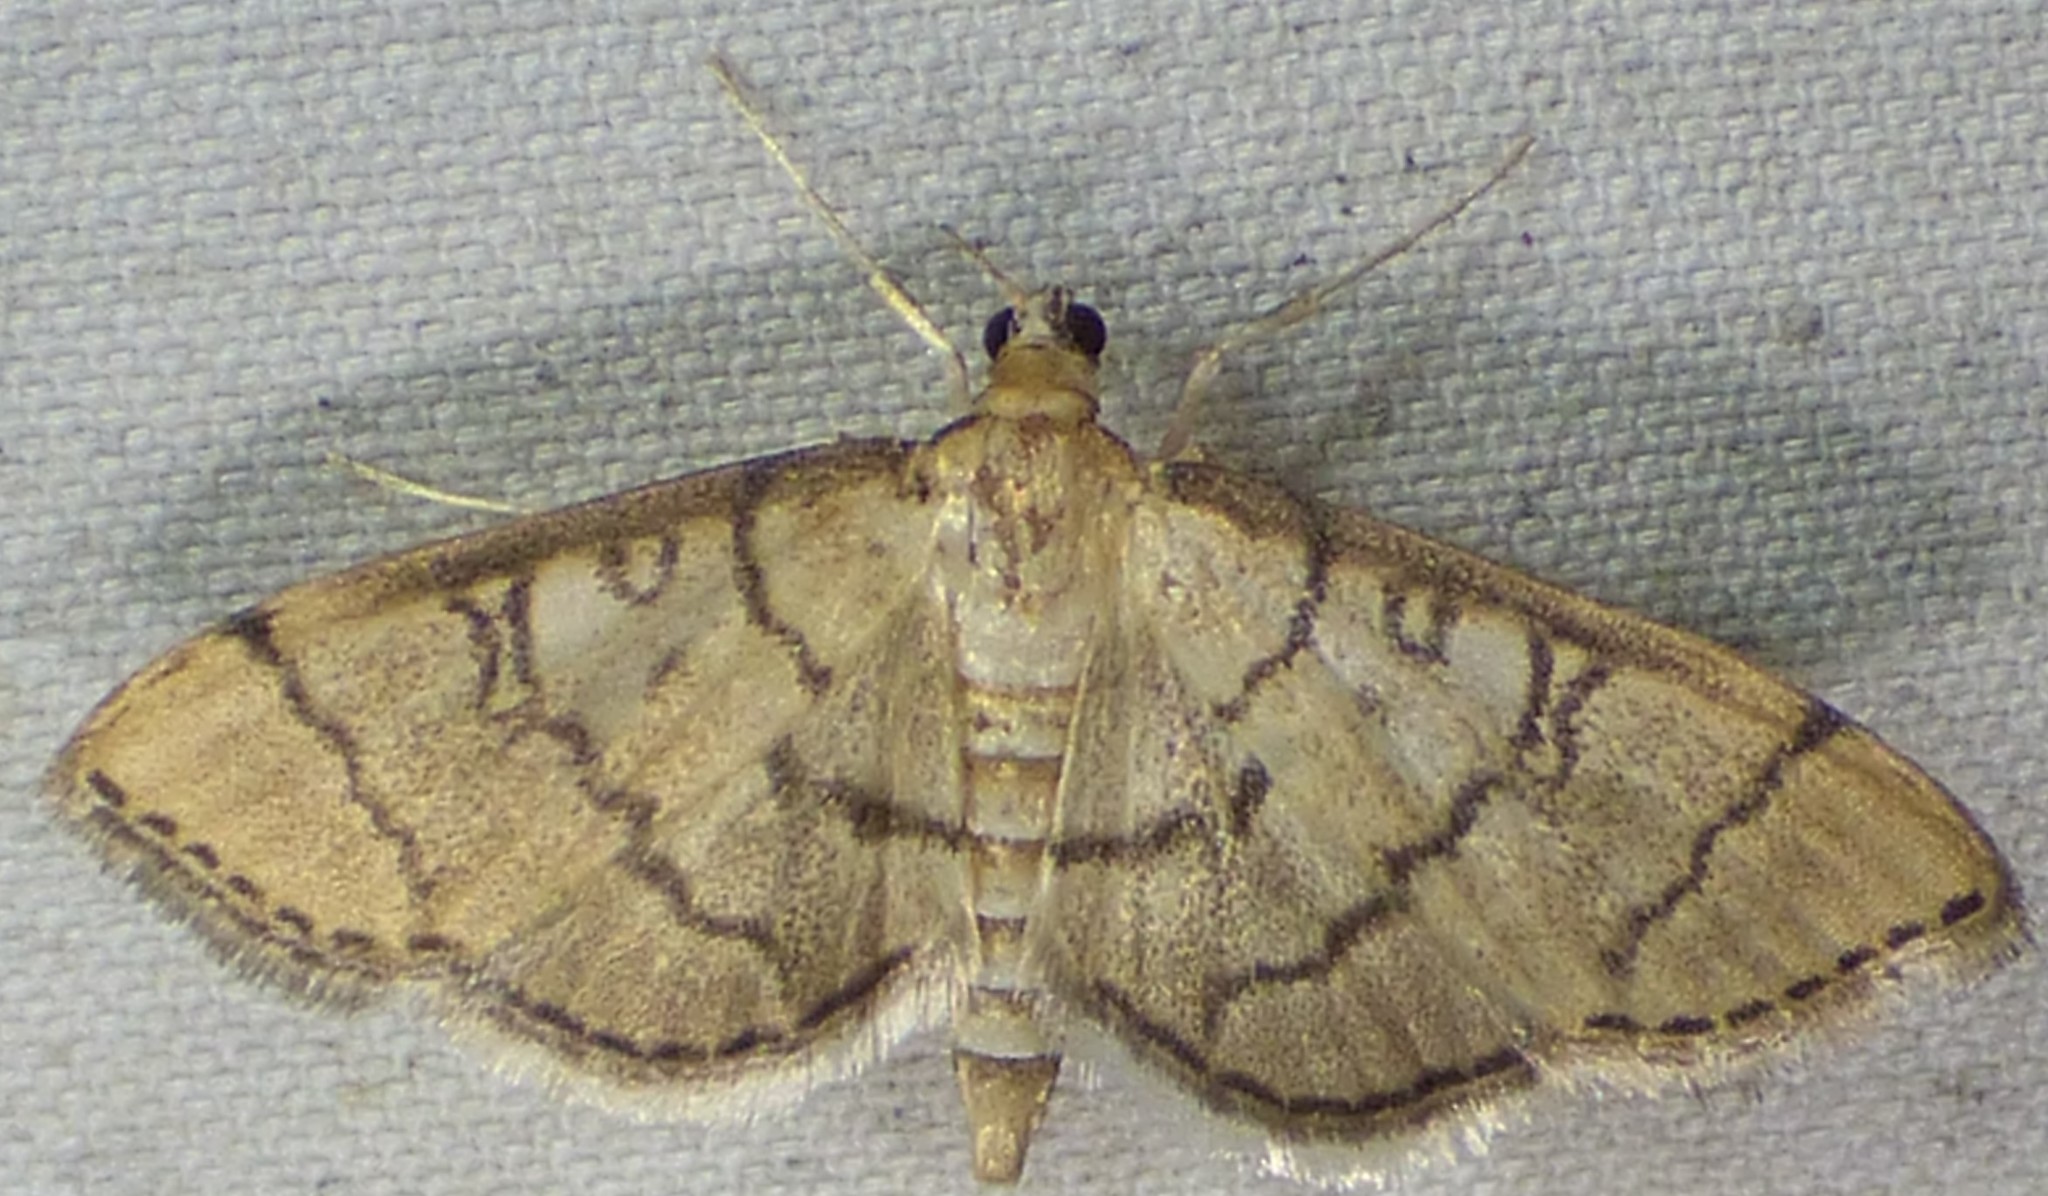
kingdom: Animalia
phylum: Arthropoda
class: Insecta
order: Lepidoptera
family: Crambidae
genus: Lamprosema
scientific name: Lamprosema Blepharomastix ranalis
